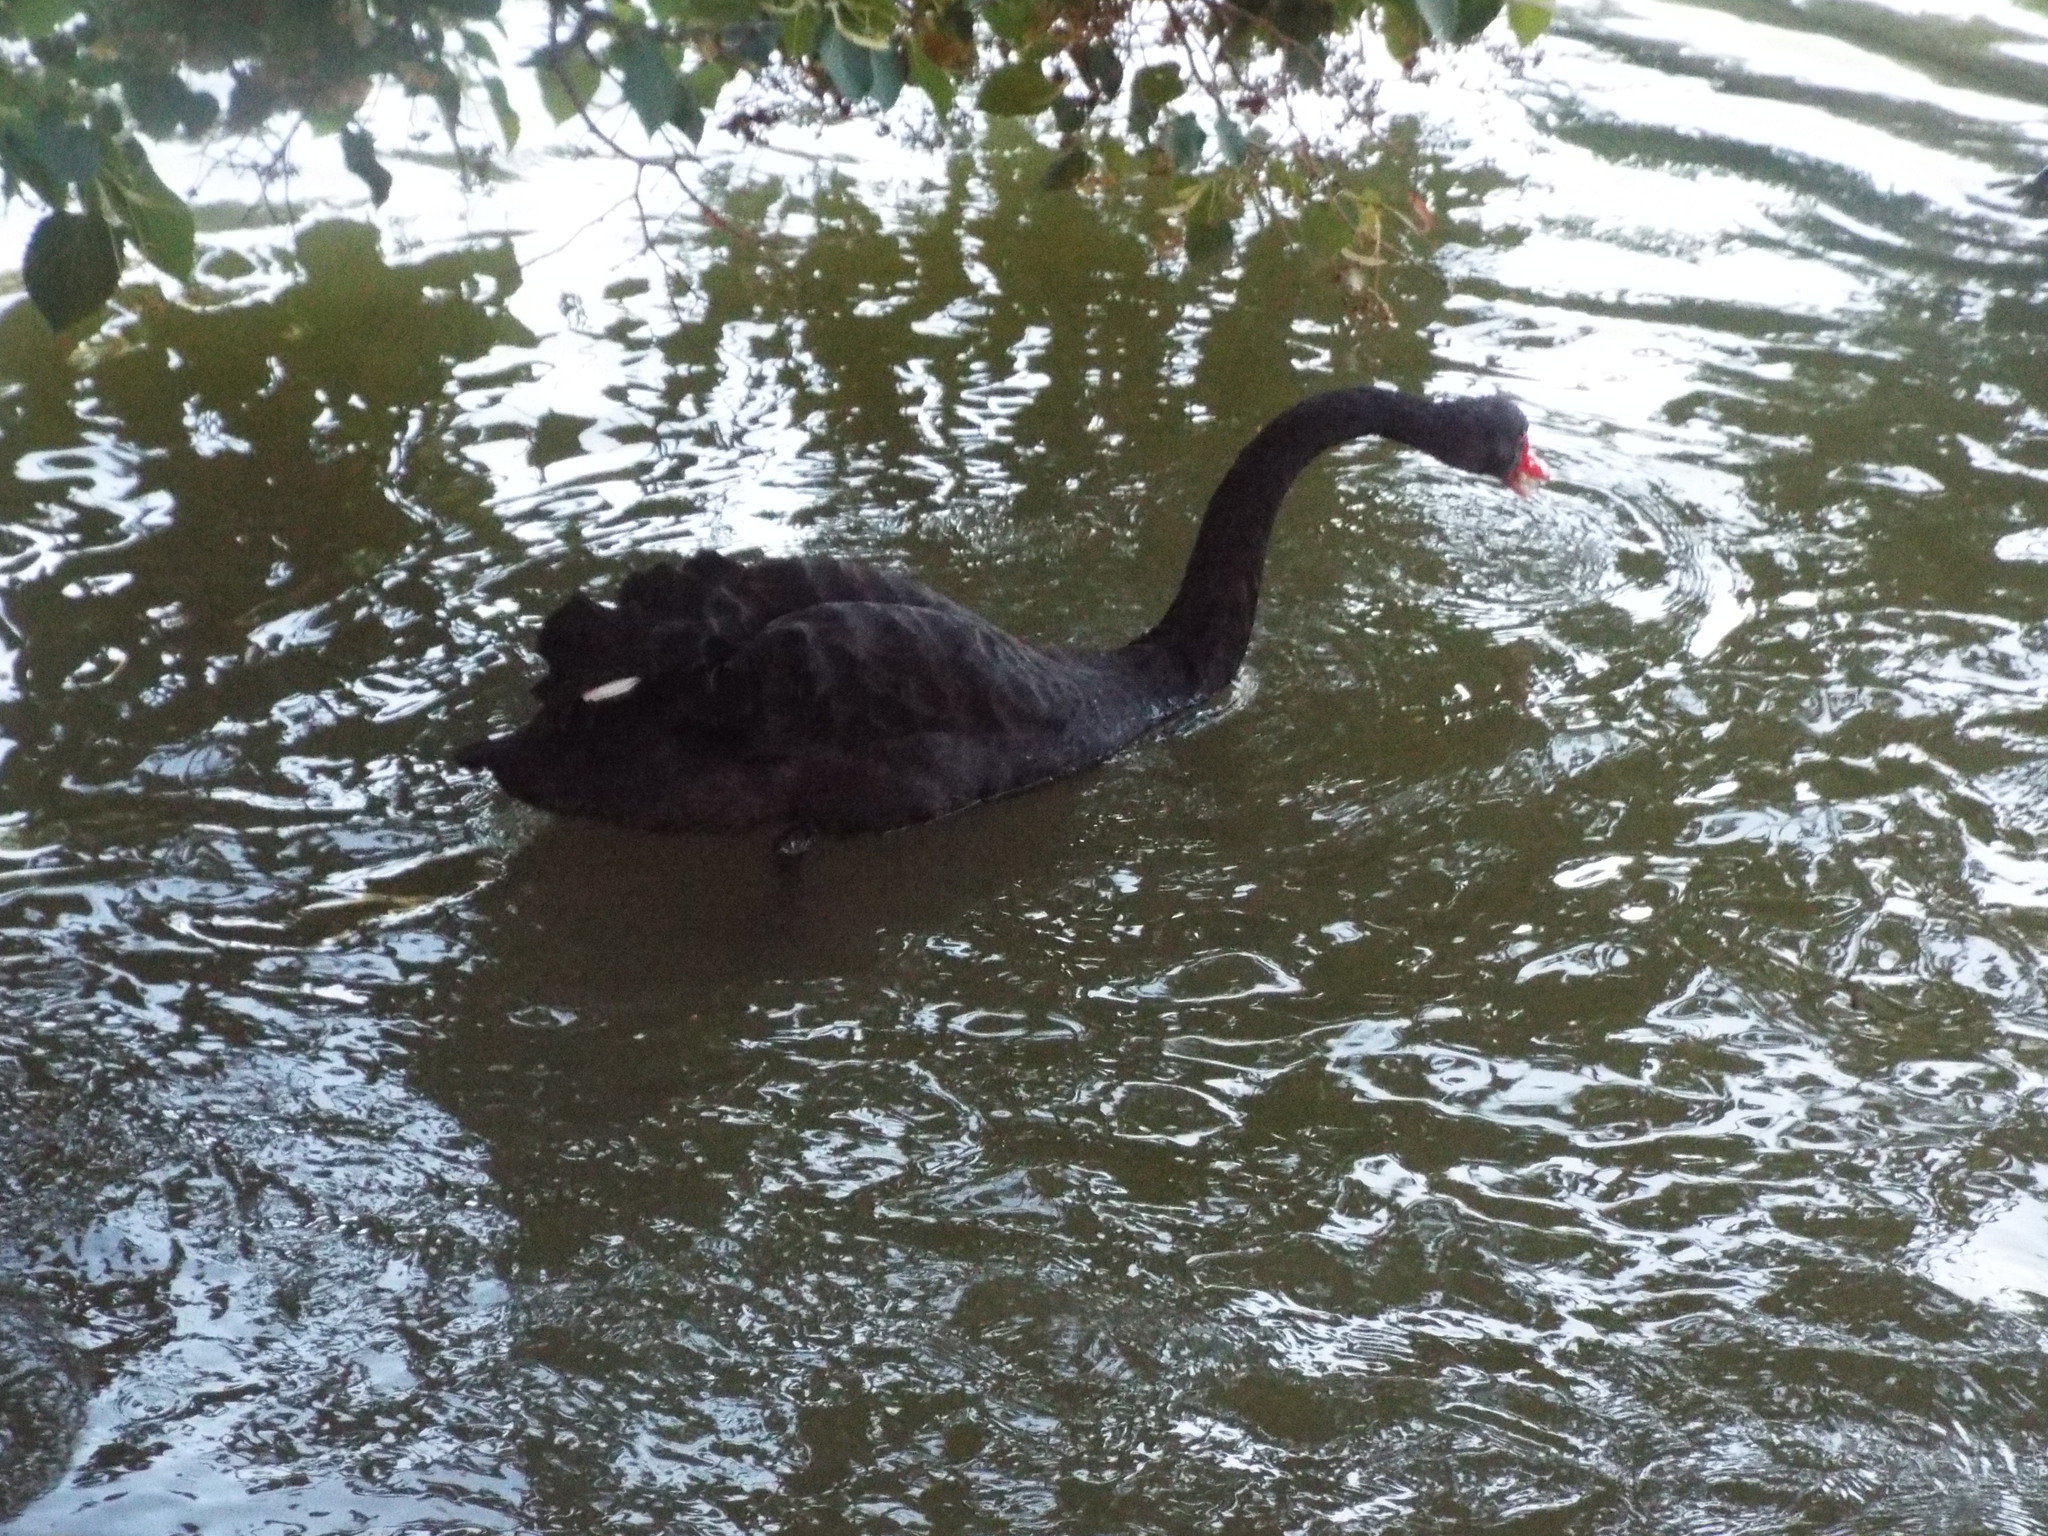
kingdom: Animalia
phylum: Chordata
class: Aves
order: Anseriformes
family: Anatidae
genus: Cygnus
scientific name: Cygnus atratus
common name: Black swan
